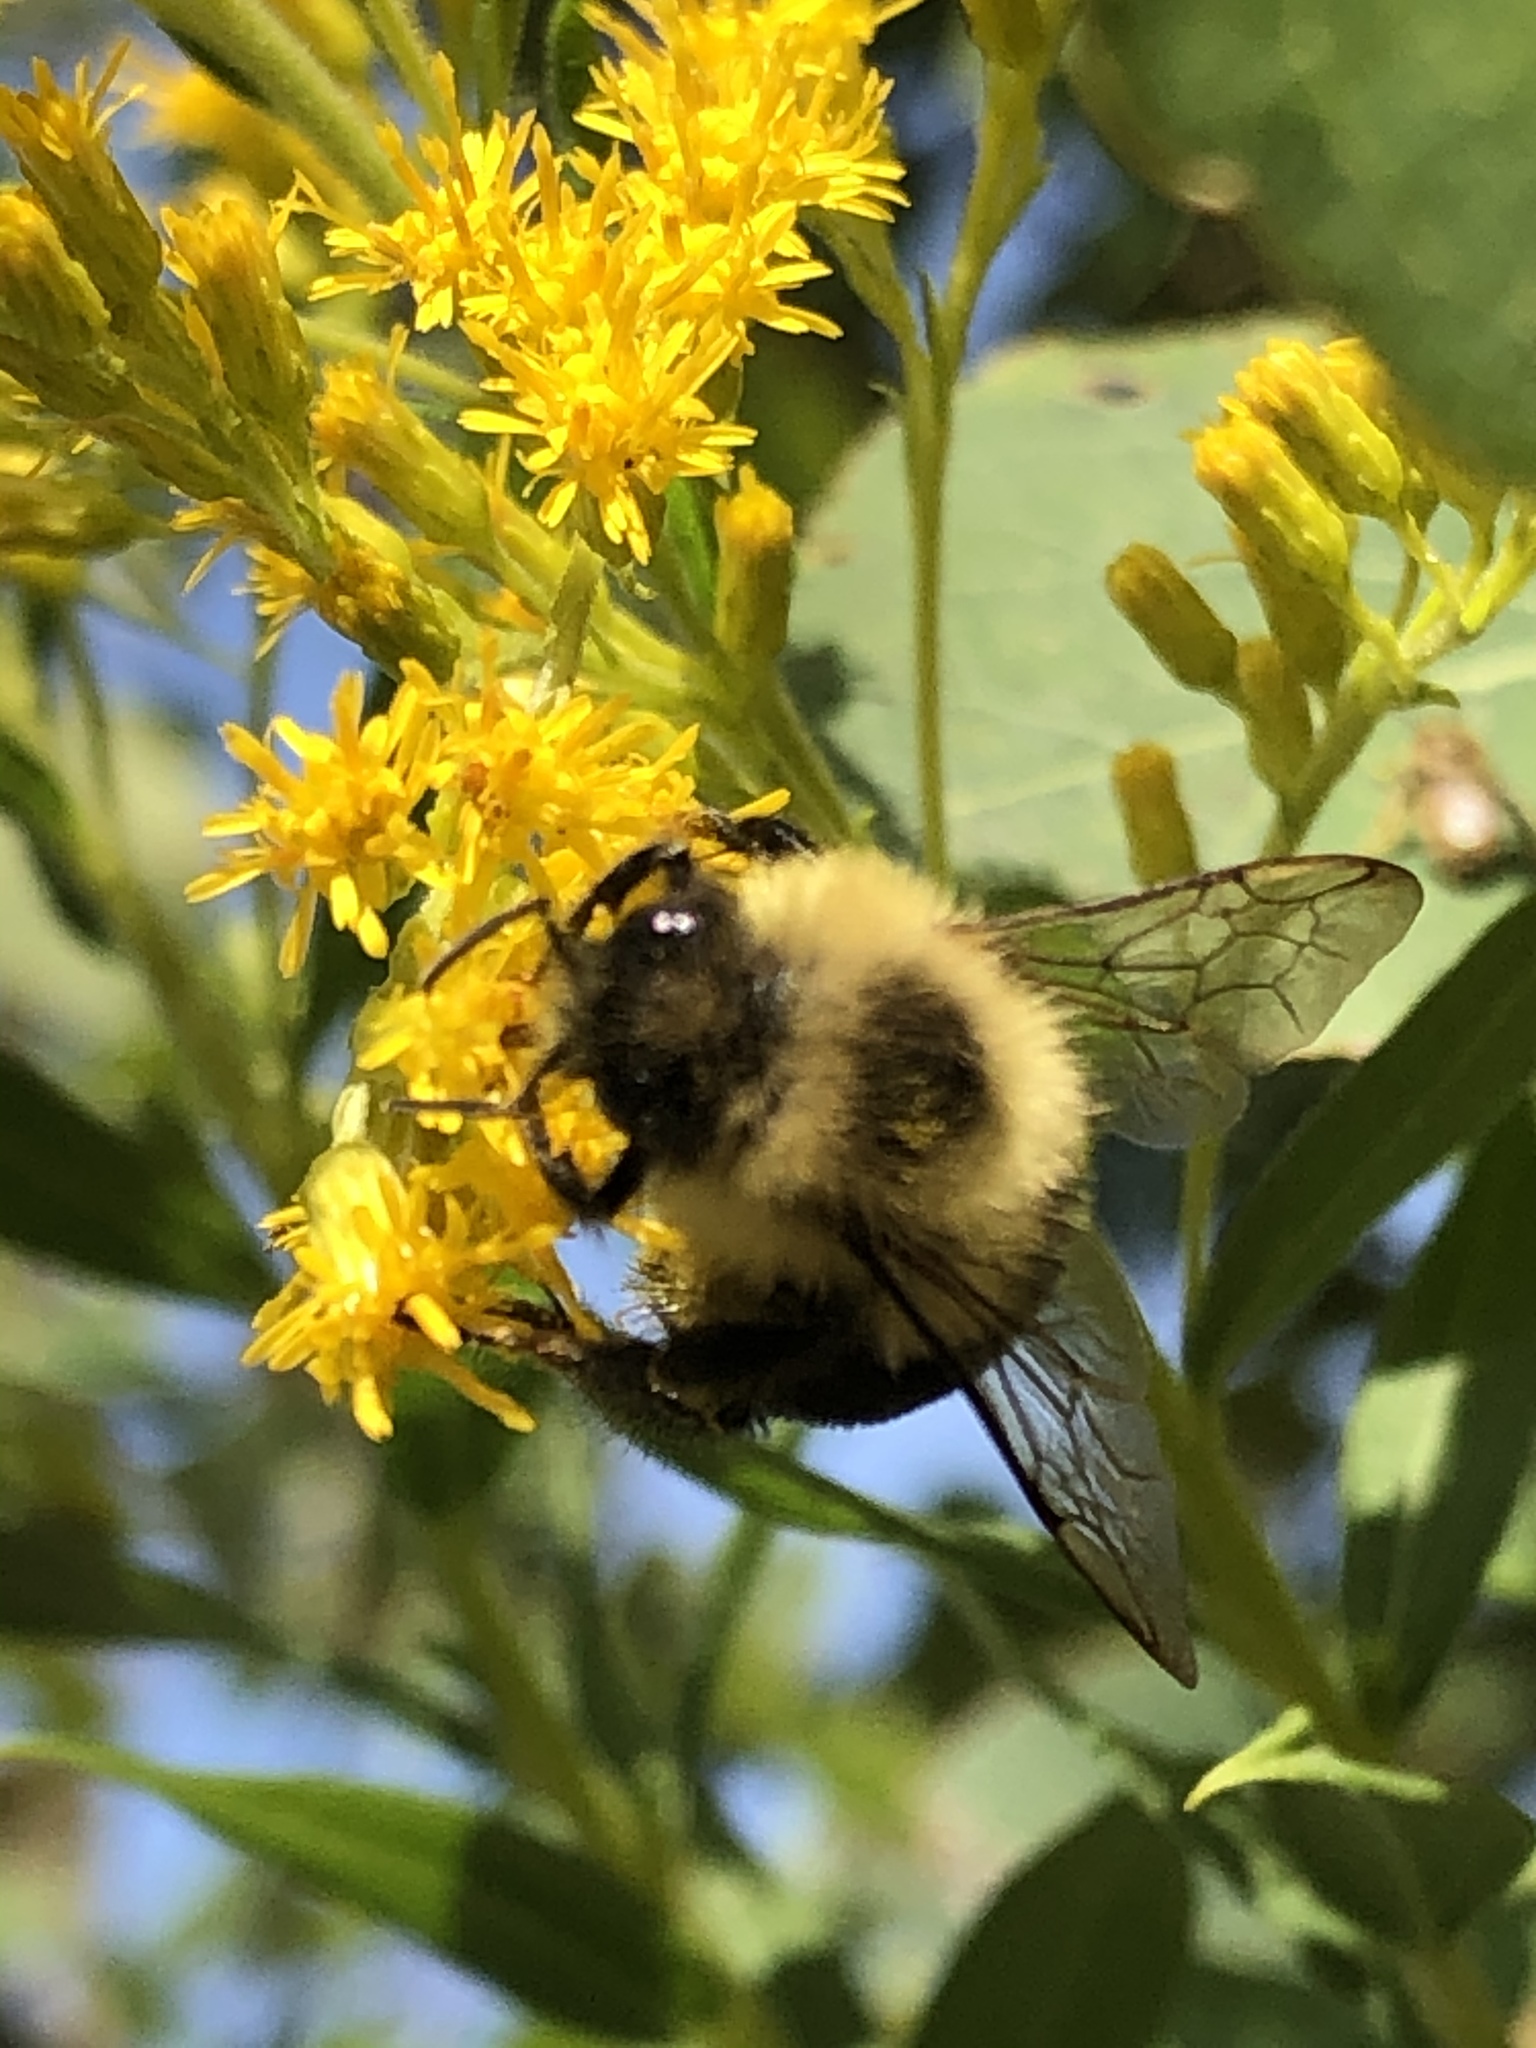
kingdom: Animalia
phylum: Arthropoda
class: Insecta
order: Hymenoptera
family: Apidae
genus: Bombus
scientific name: Bombus impatiens
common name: Common eastern bumble bee
